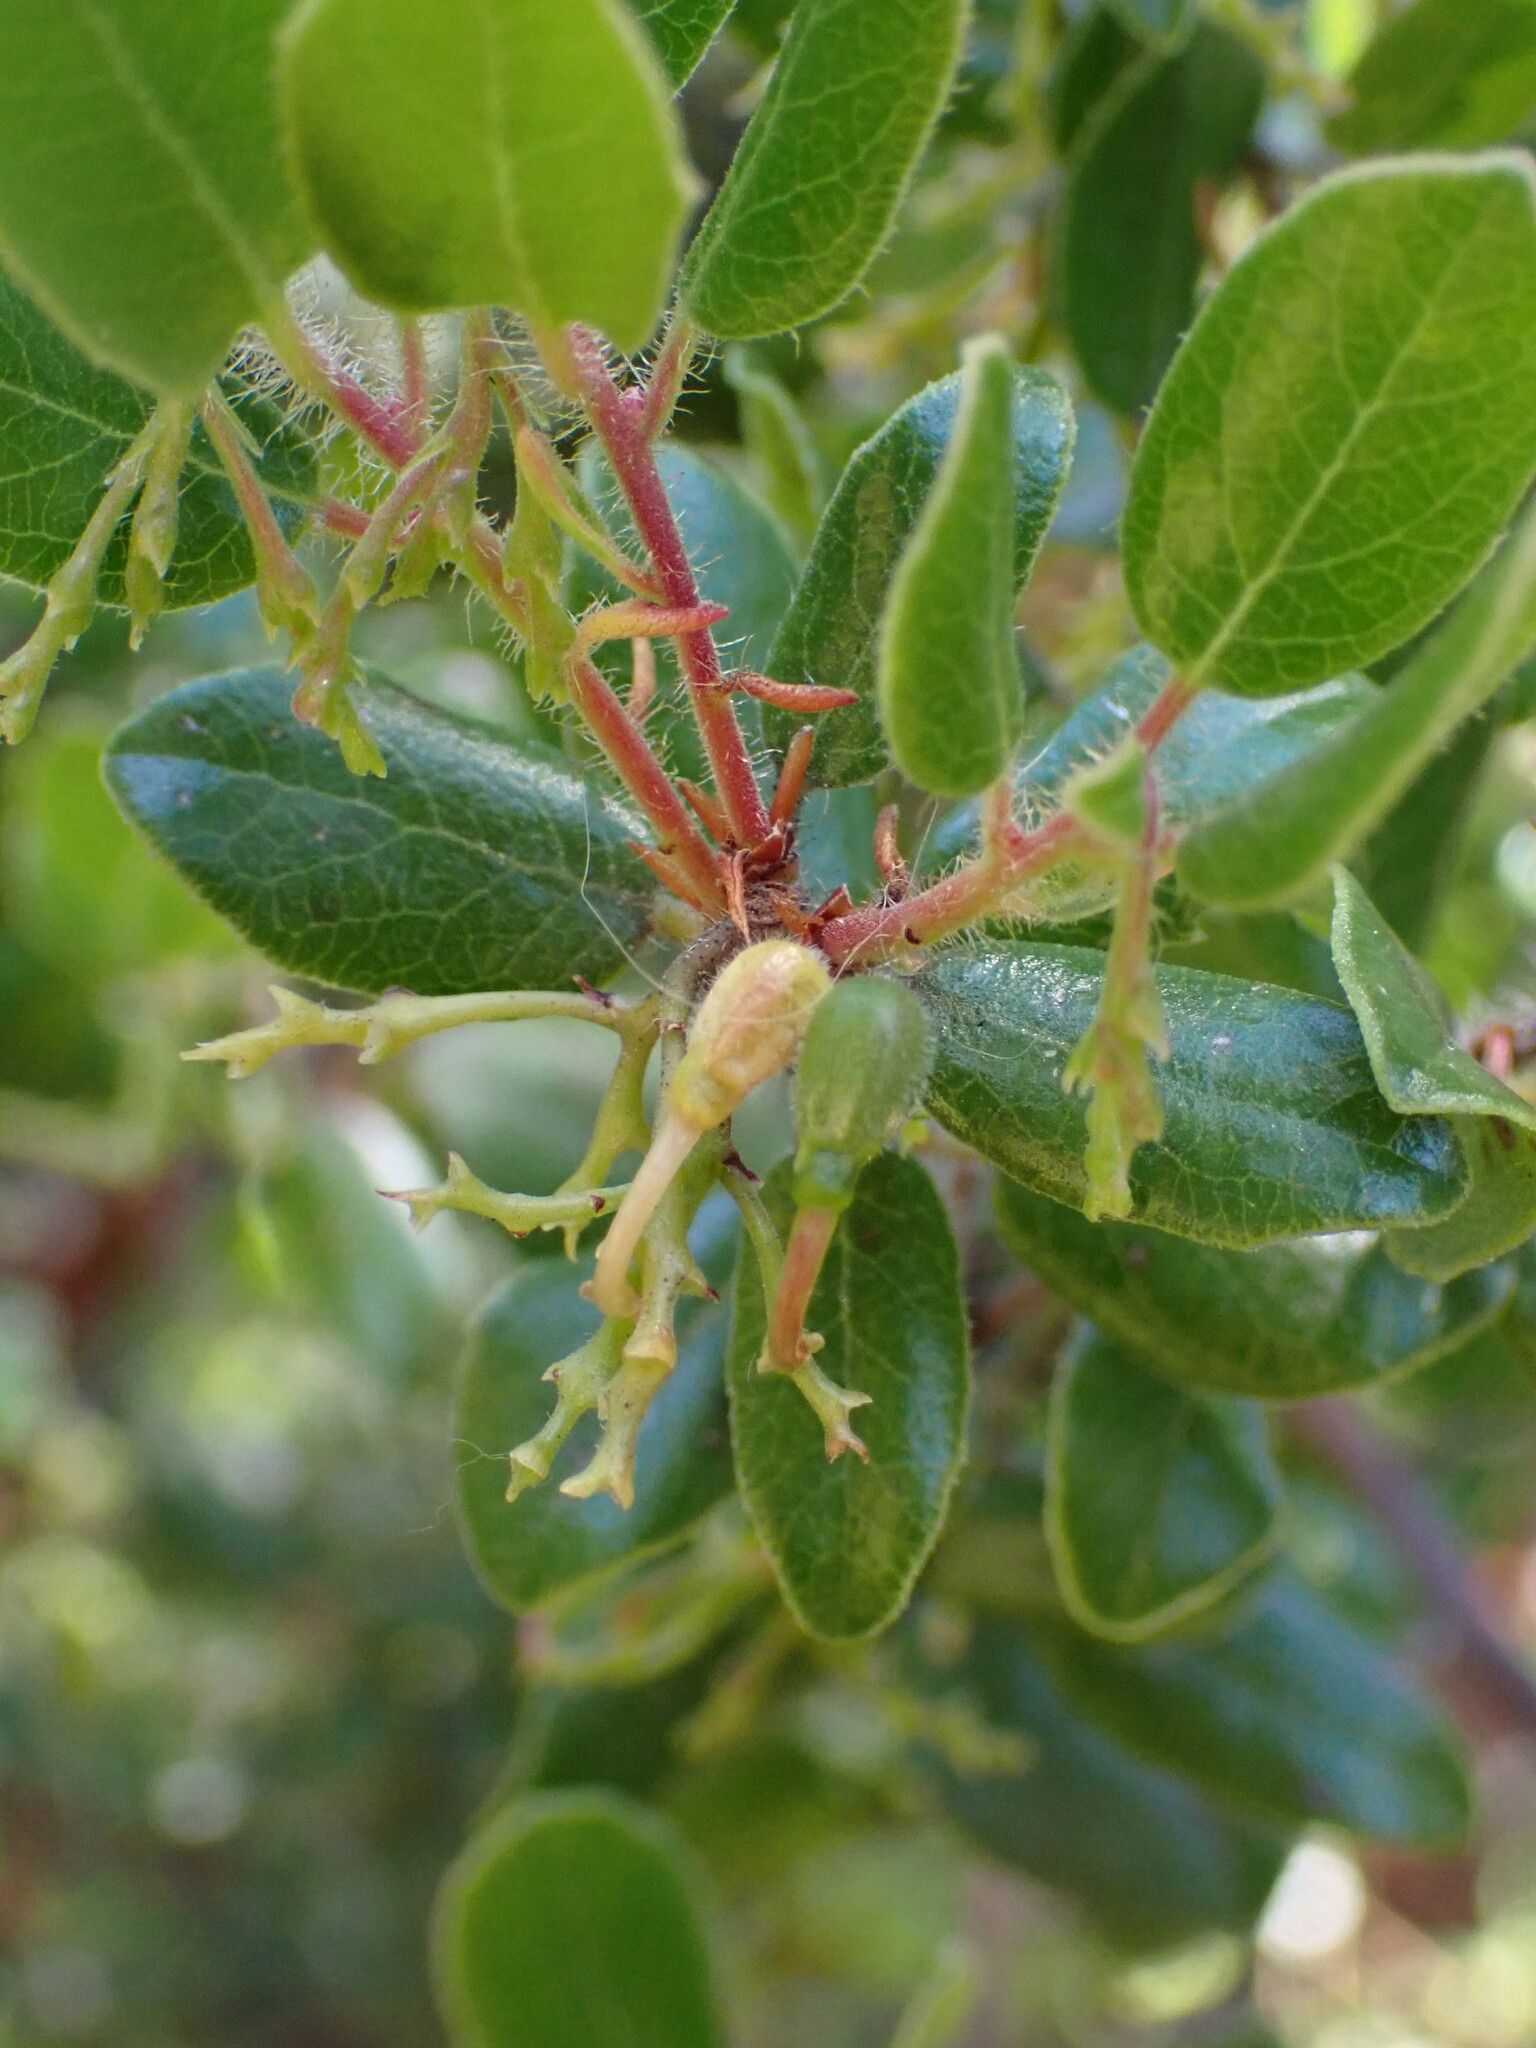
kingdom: Plantae
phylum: Tracheophyta
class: Magnoliopsida
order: Ericales
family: Ericaceae
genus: Arctostaphylos
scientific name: Arctostaphylos nummularia
